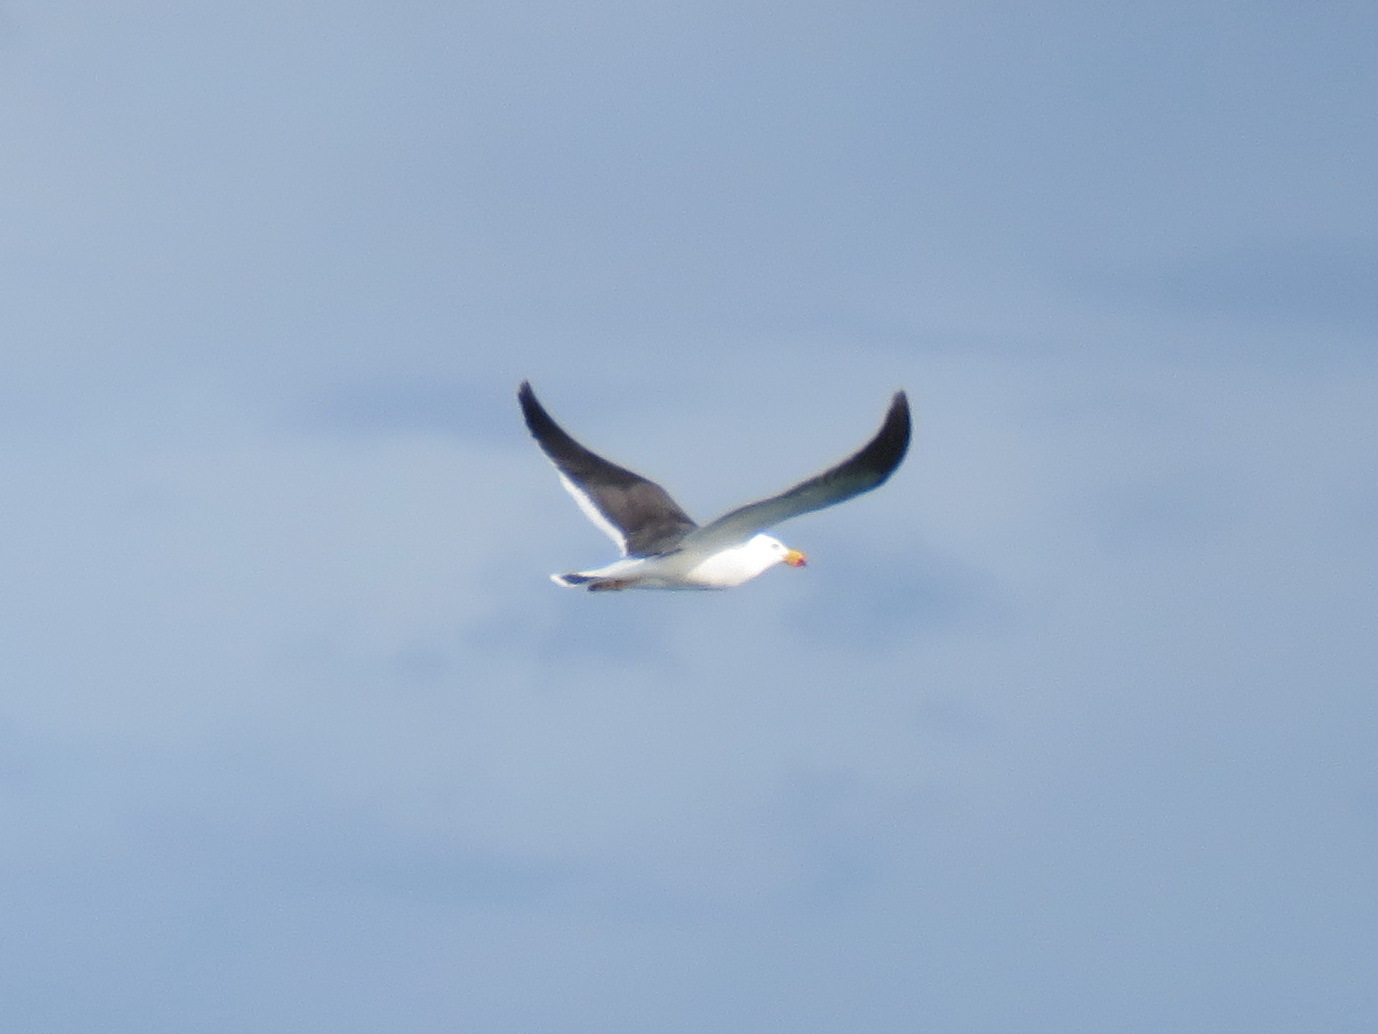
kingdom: Animalia
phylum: Chordata
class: Aves
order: Charadriiformes
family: Laridae
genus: Larus
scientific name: Larus pacificus
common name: Pacific gull
